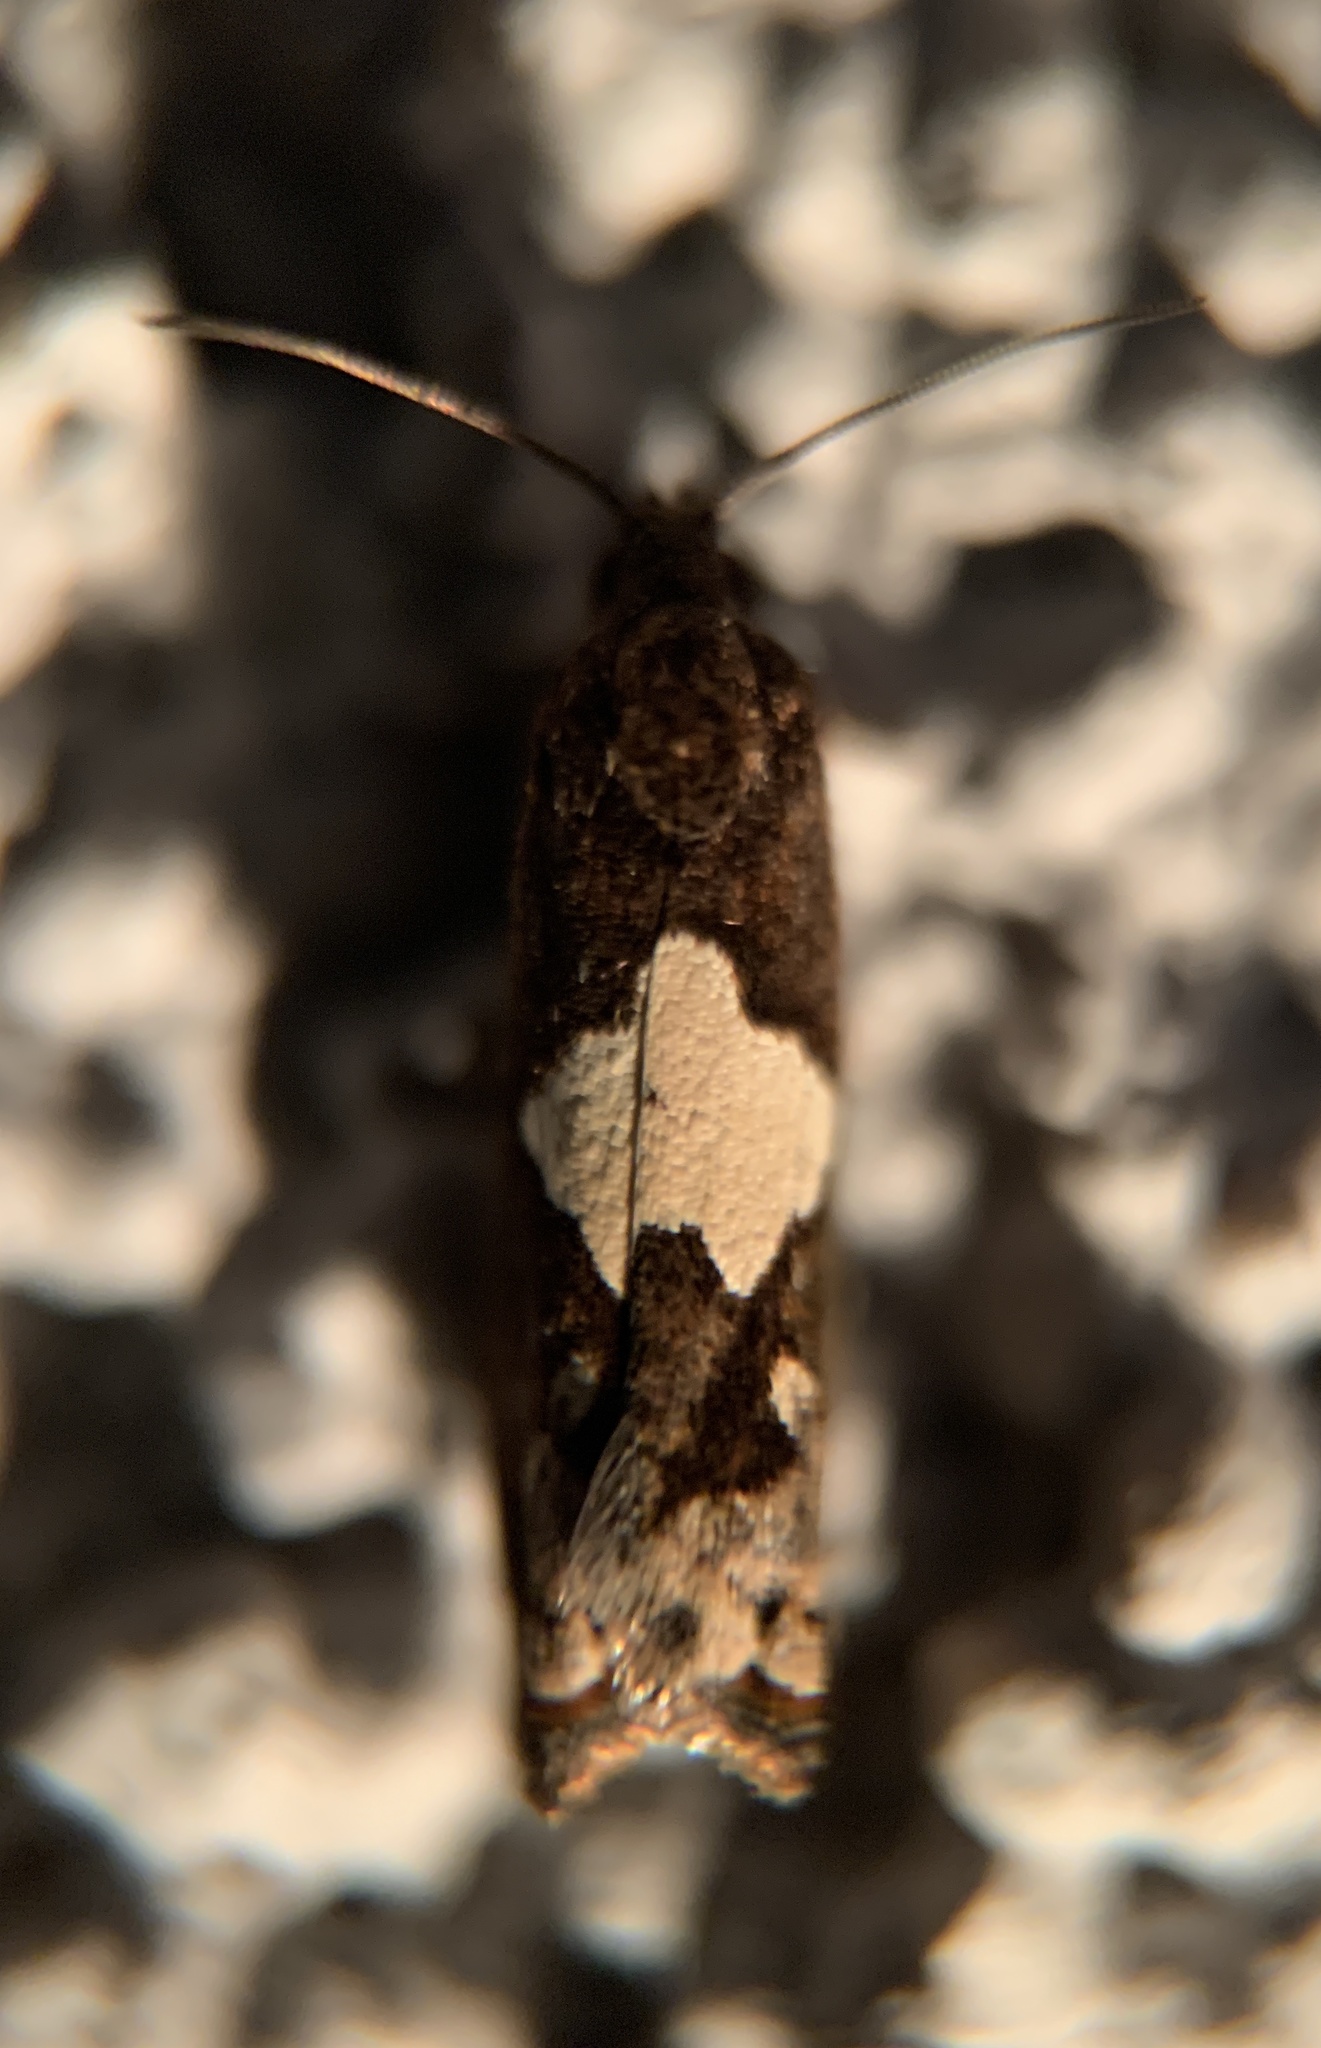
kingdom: Animalia
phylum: Arthropoda
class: Insecta
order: Lepidoptera
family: Tortricidae
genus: Epiblema
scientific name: Epiblema otiosana
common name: Bidens borer moth
